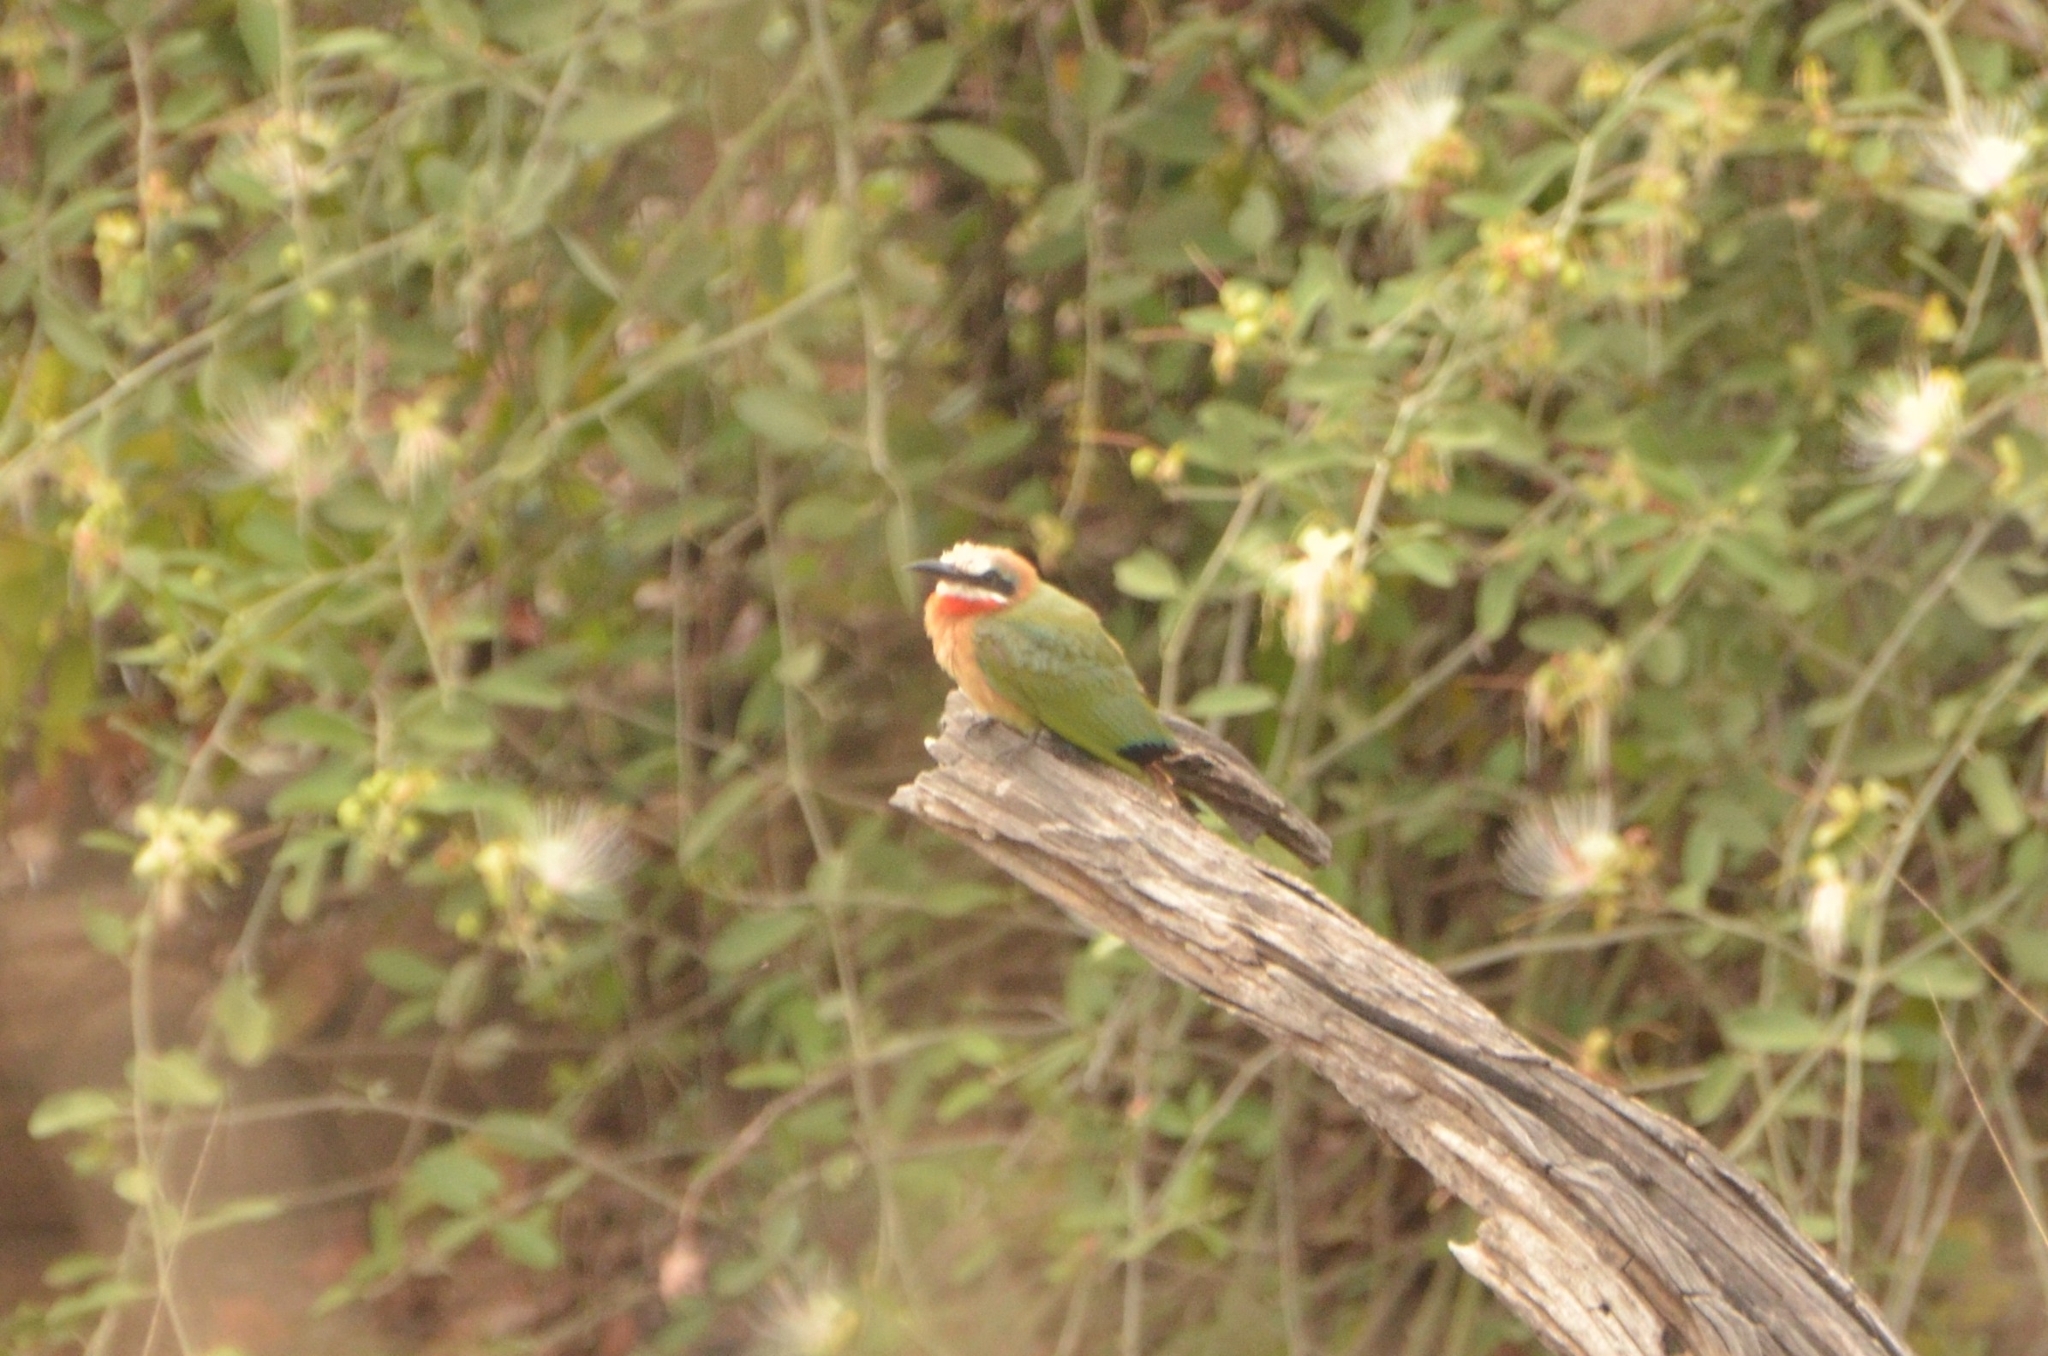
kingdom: Animalia
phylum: Chordata
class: Aves
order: Coraciiformes
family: Meropidae
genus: Merops
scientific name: Merops bullockoides
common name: White-fronted bee-eater
